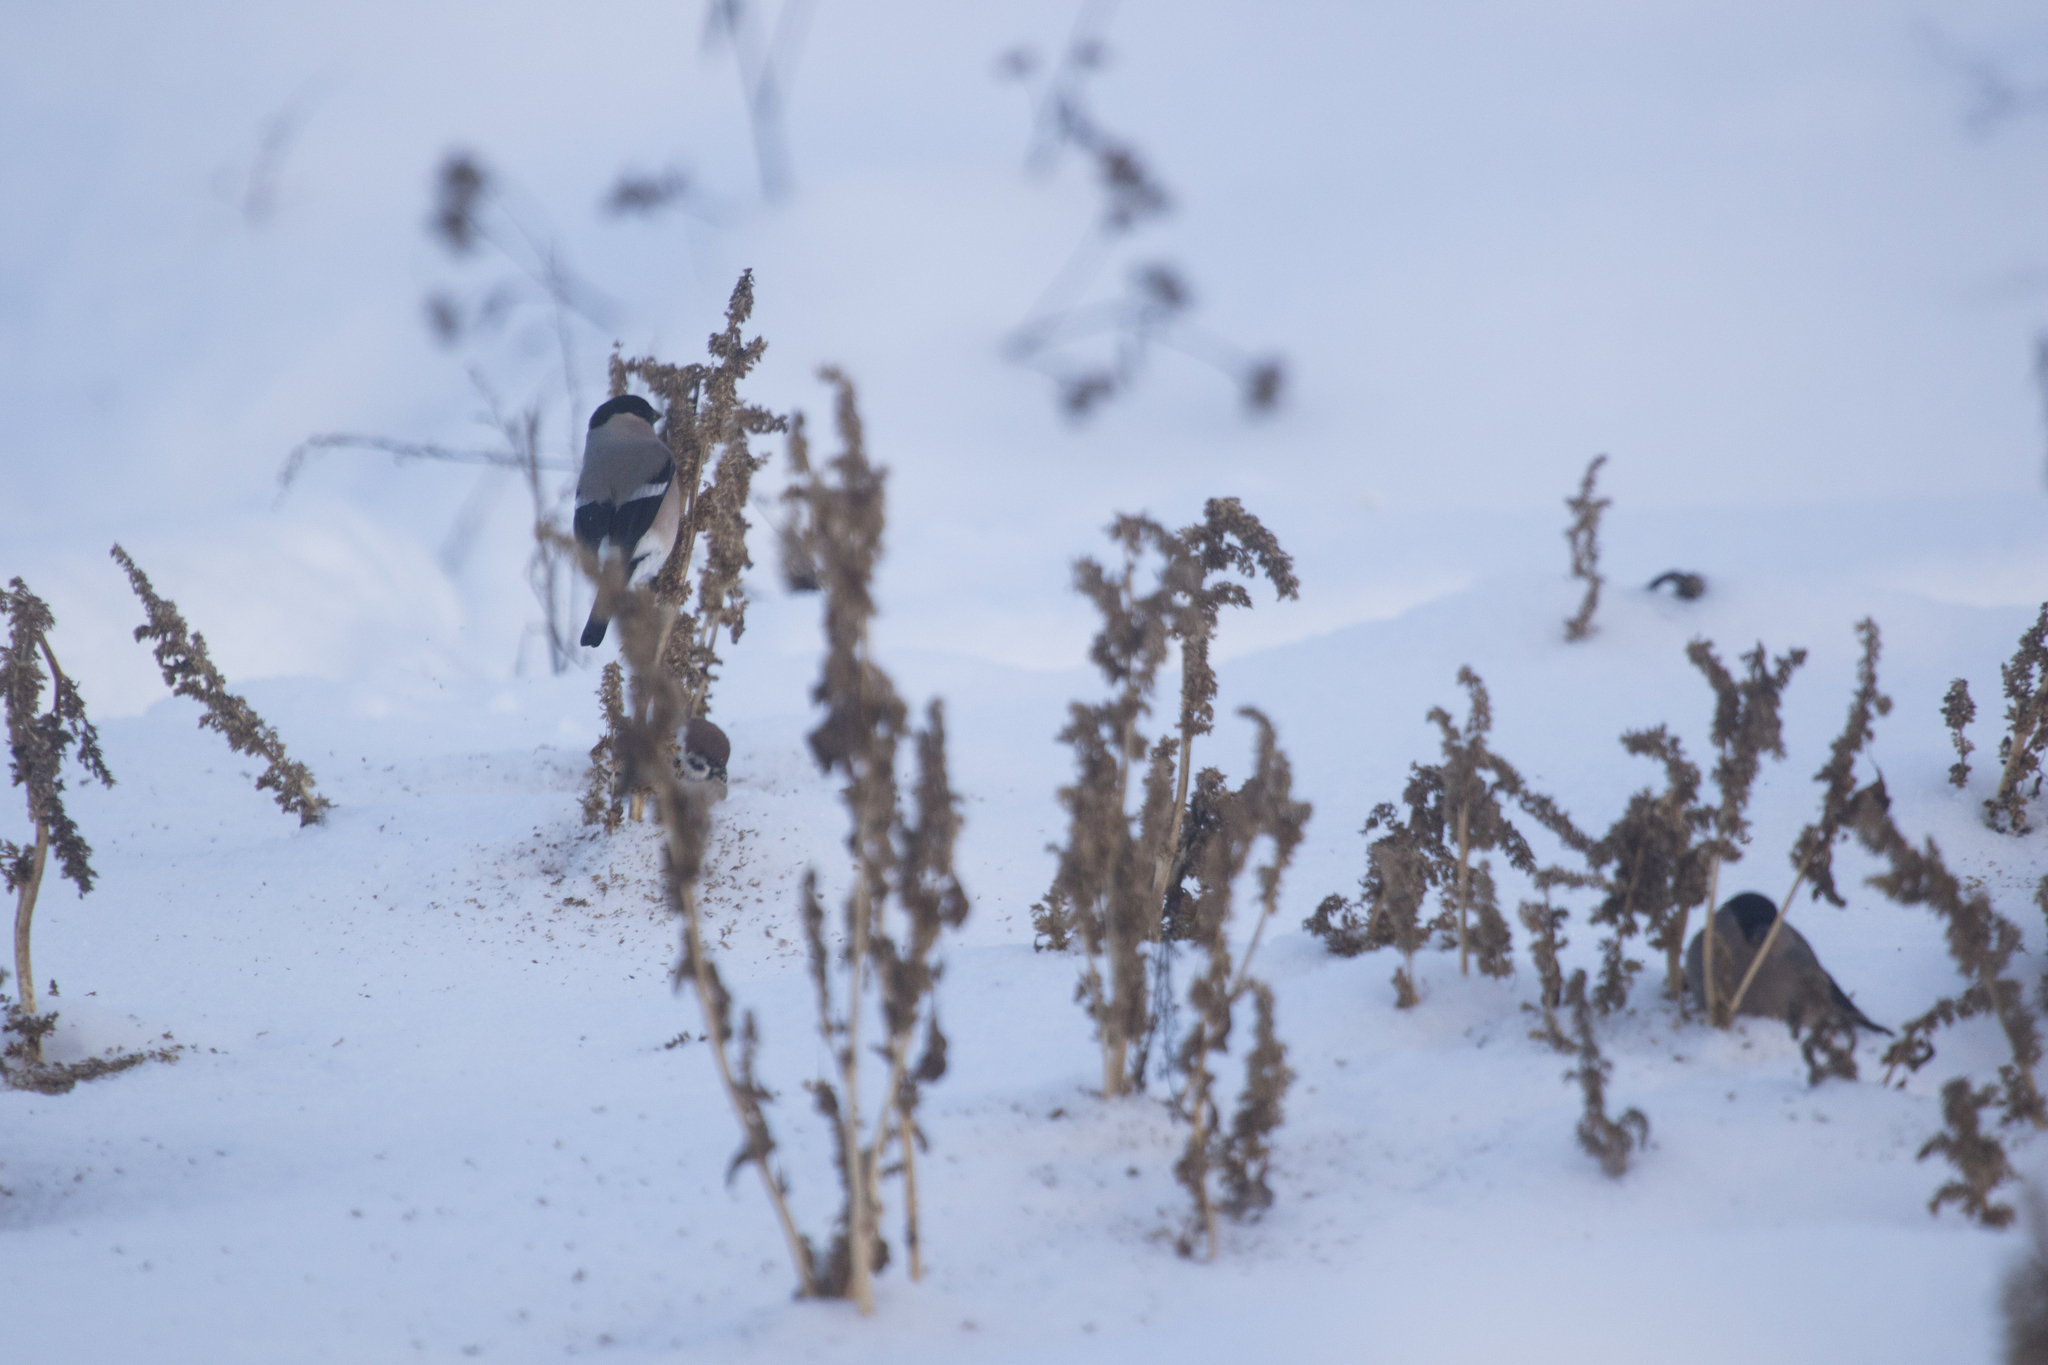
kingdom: Animalia
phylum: Chordata
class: Aves
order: Passeriformes
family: Passeridae
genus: Passer
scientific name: Passer montanus
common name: Eurasian tree sparrow
